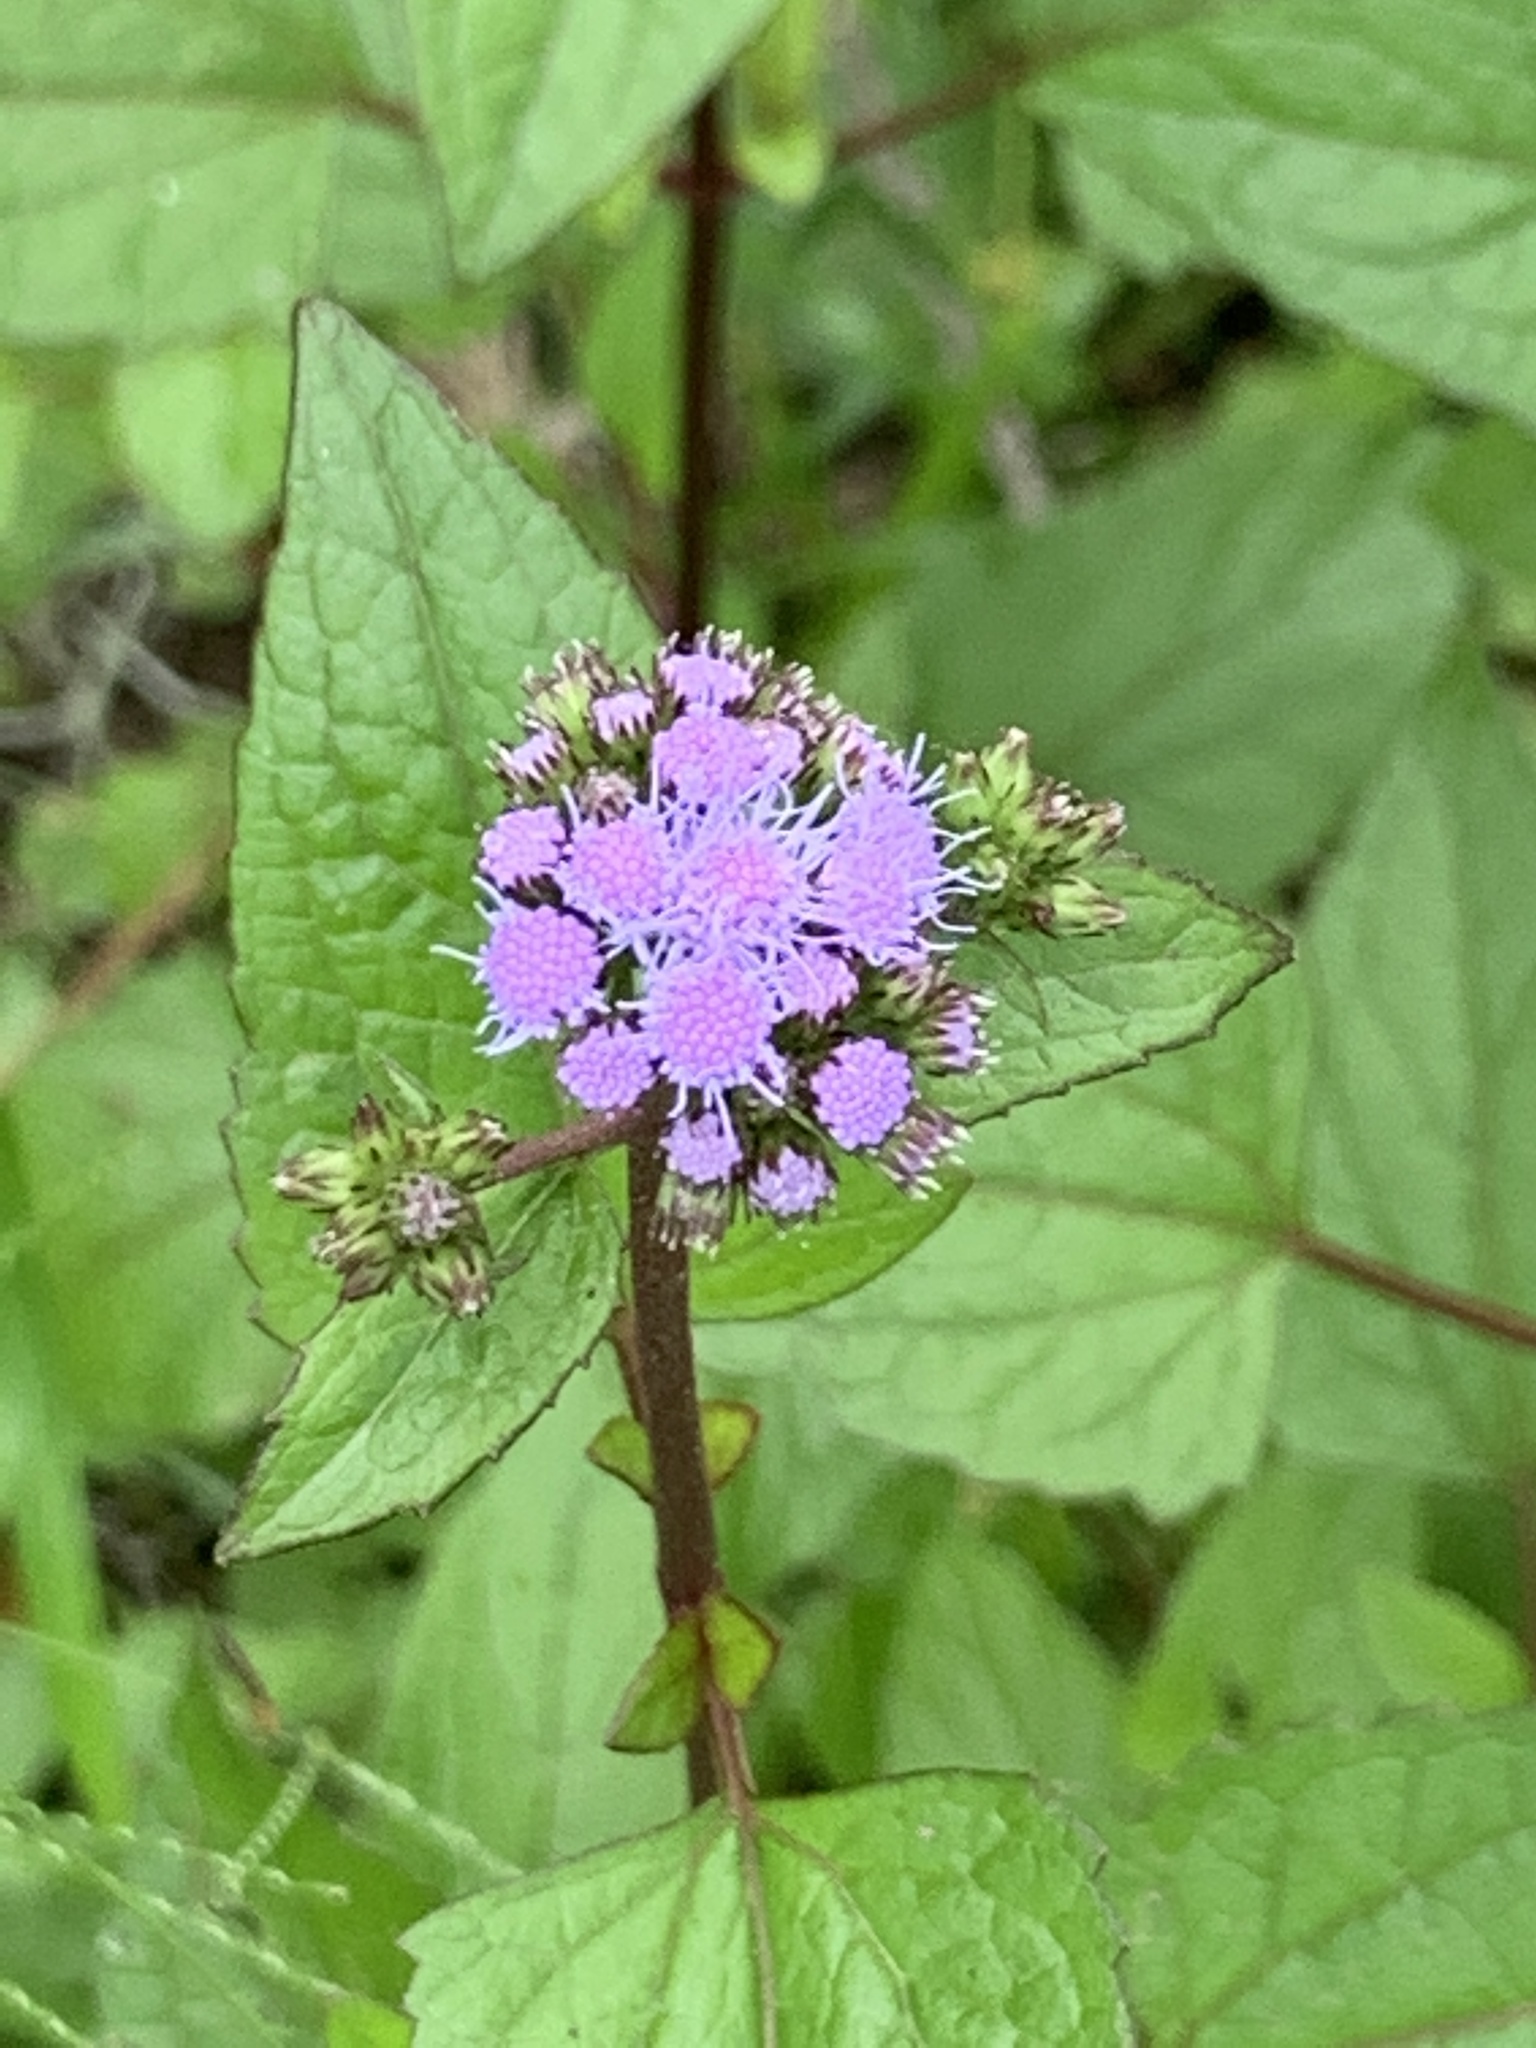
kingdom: Plantae
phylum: Tracheophyta
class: Magnoliopsida
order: Asterales
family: Asteraceae
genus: Conoclinium
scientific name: Conoclinium coelestinum
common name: Blue mistflower
